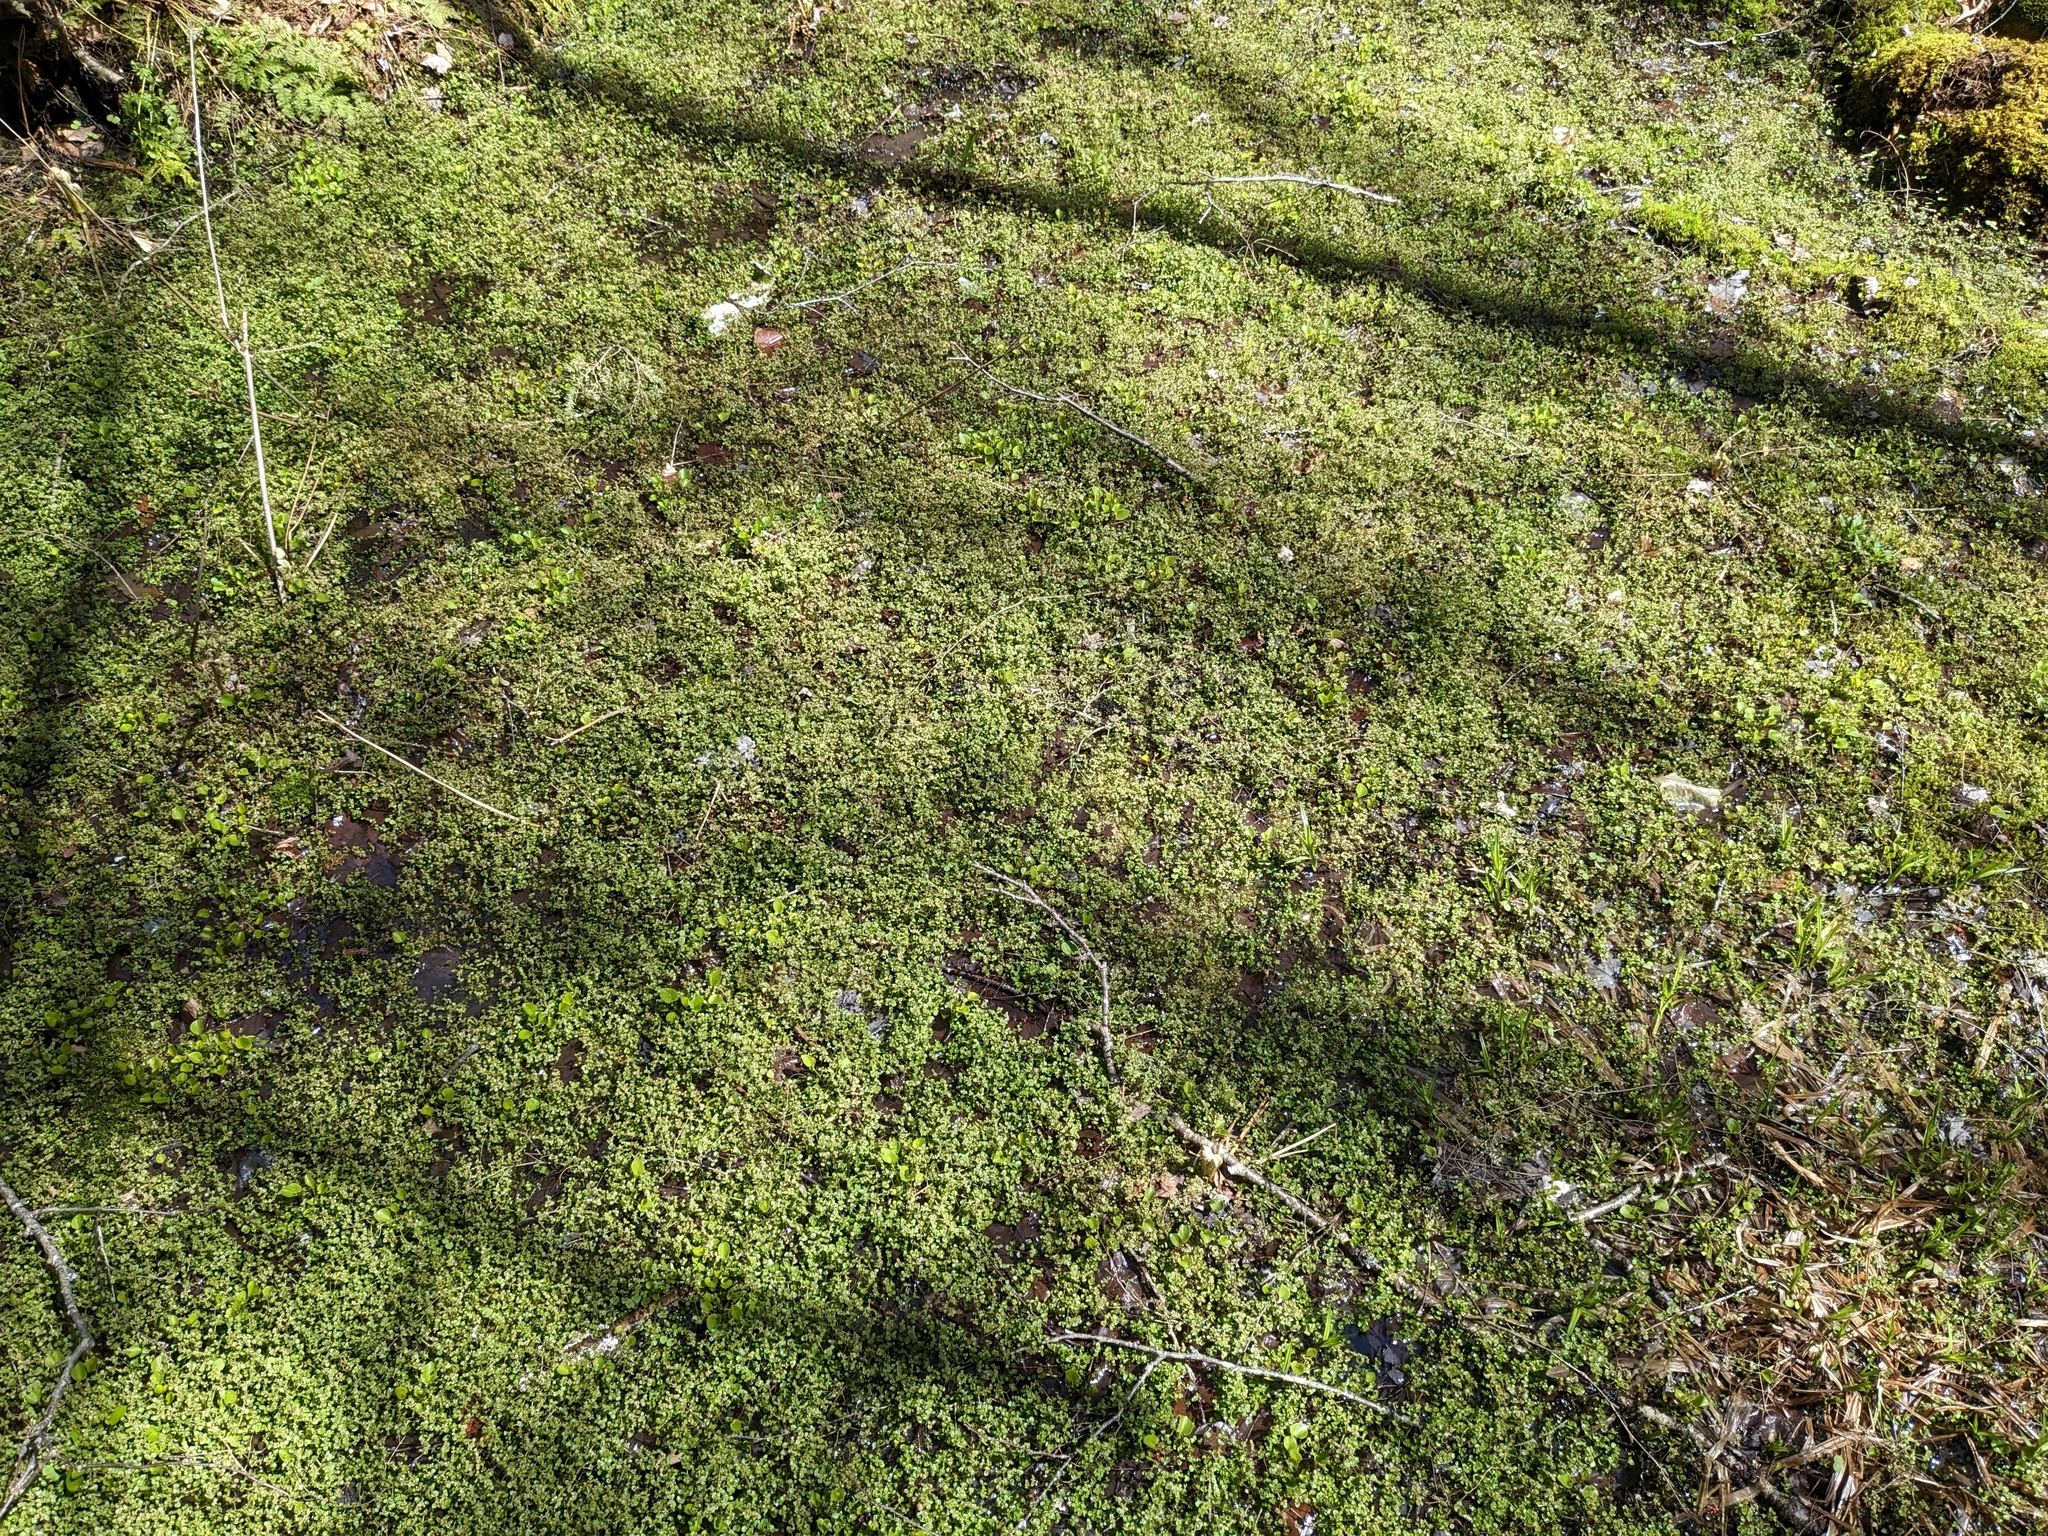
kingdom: Plantae
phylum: Tracheophyta
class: Magnoliopsida
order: Saxifragales
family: Saxifragaceae
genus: Chrysosplenium
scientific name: Chrysosplenium americanum
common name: American golden-saxifrage
